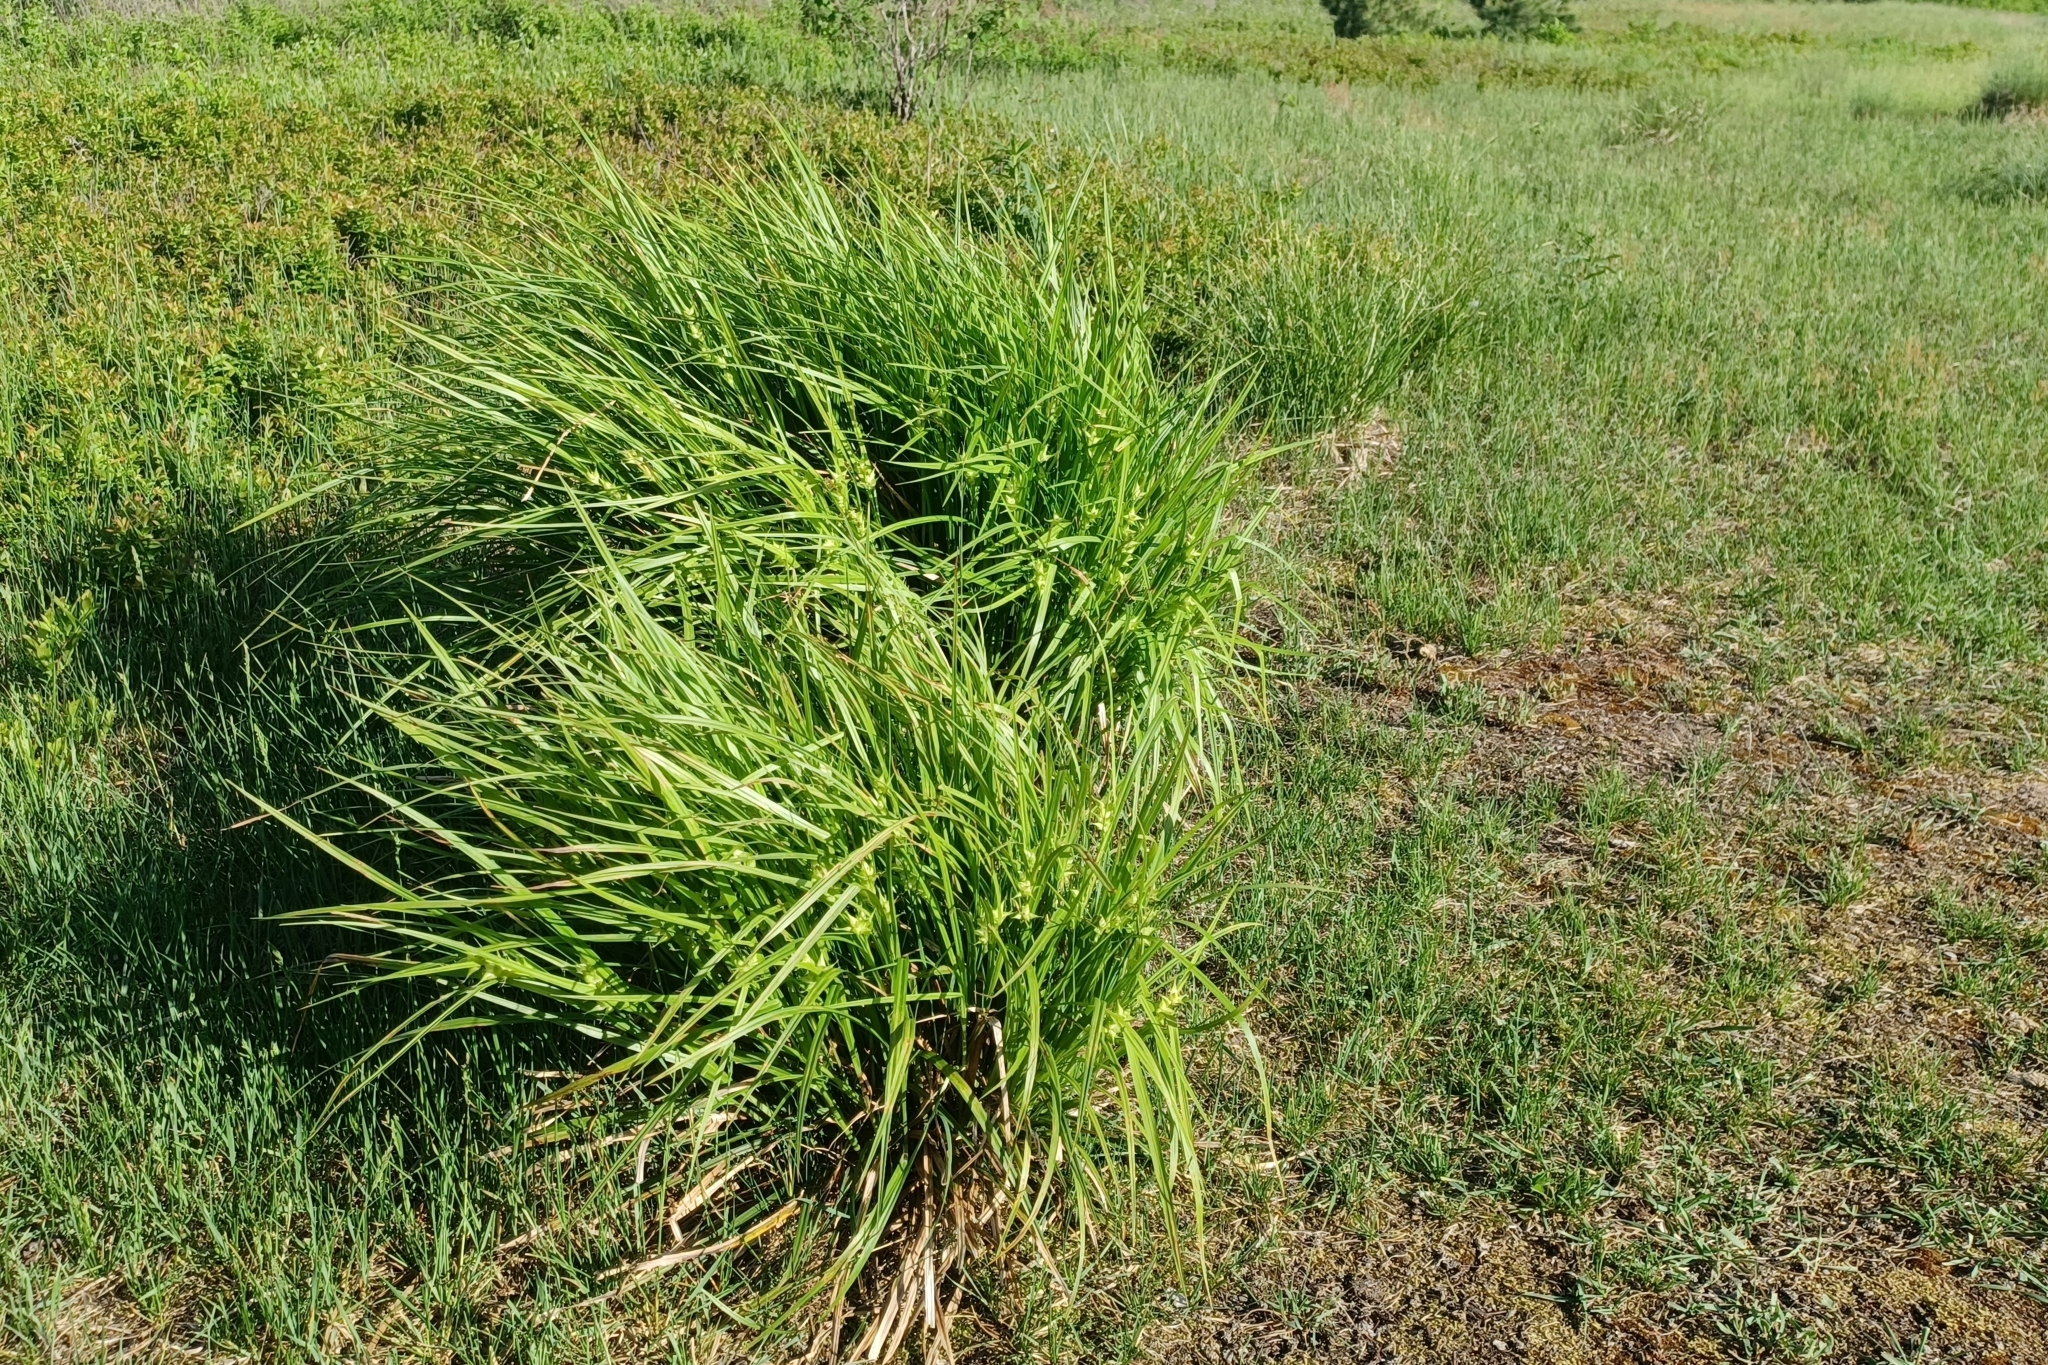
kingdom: Plantae
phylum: Tracheophyta
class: Liliopsida
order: Poales
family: Cyperaceae
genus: Carex
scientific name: Carex intumescens
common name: Greater bladder sedge
